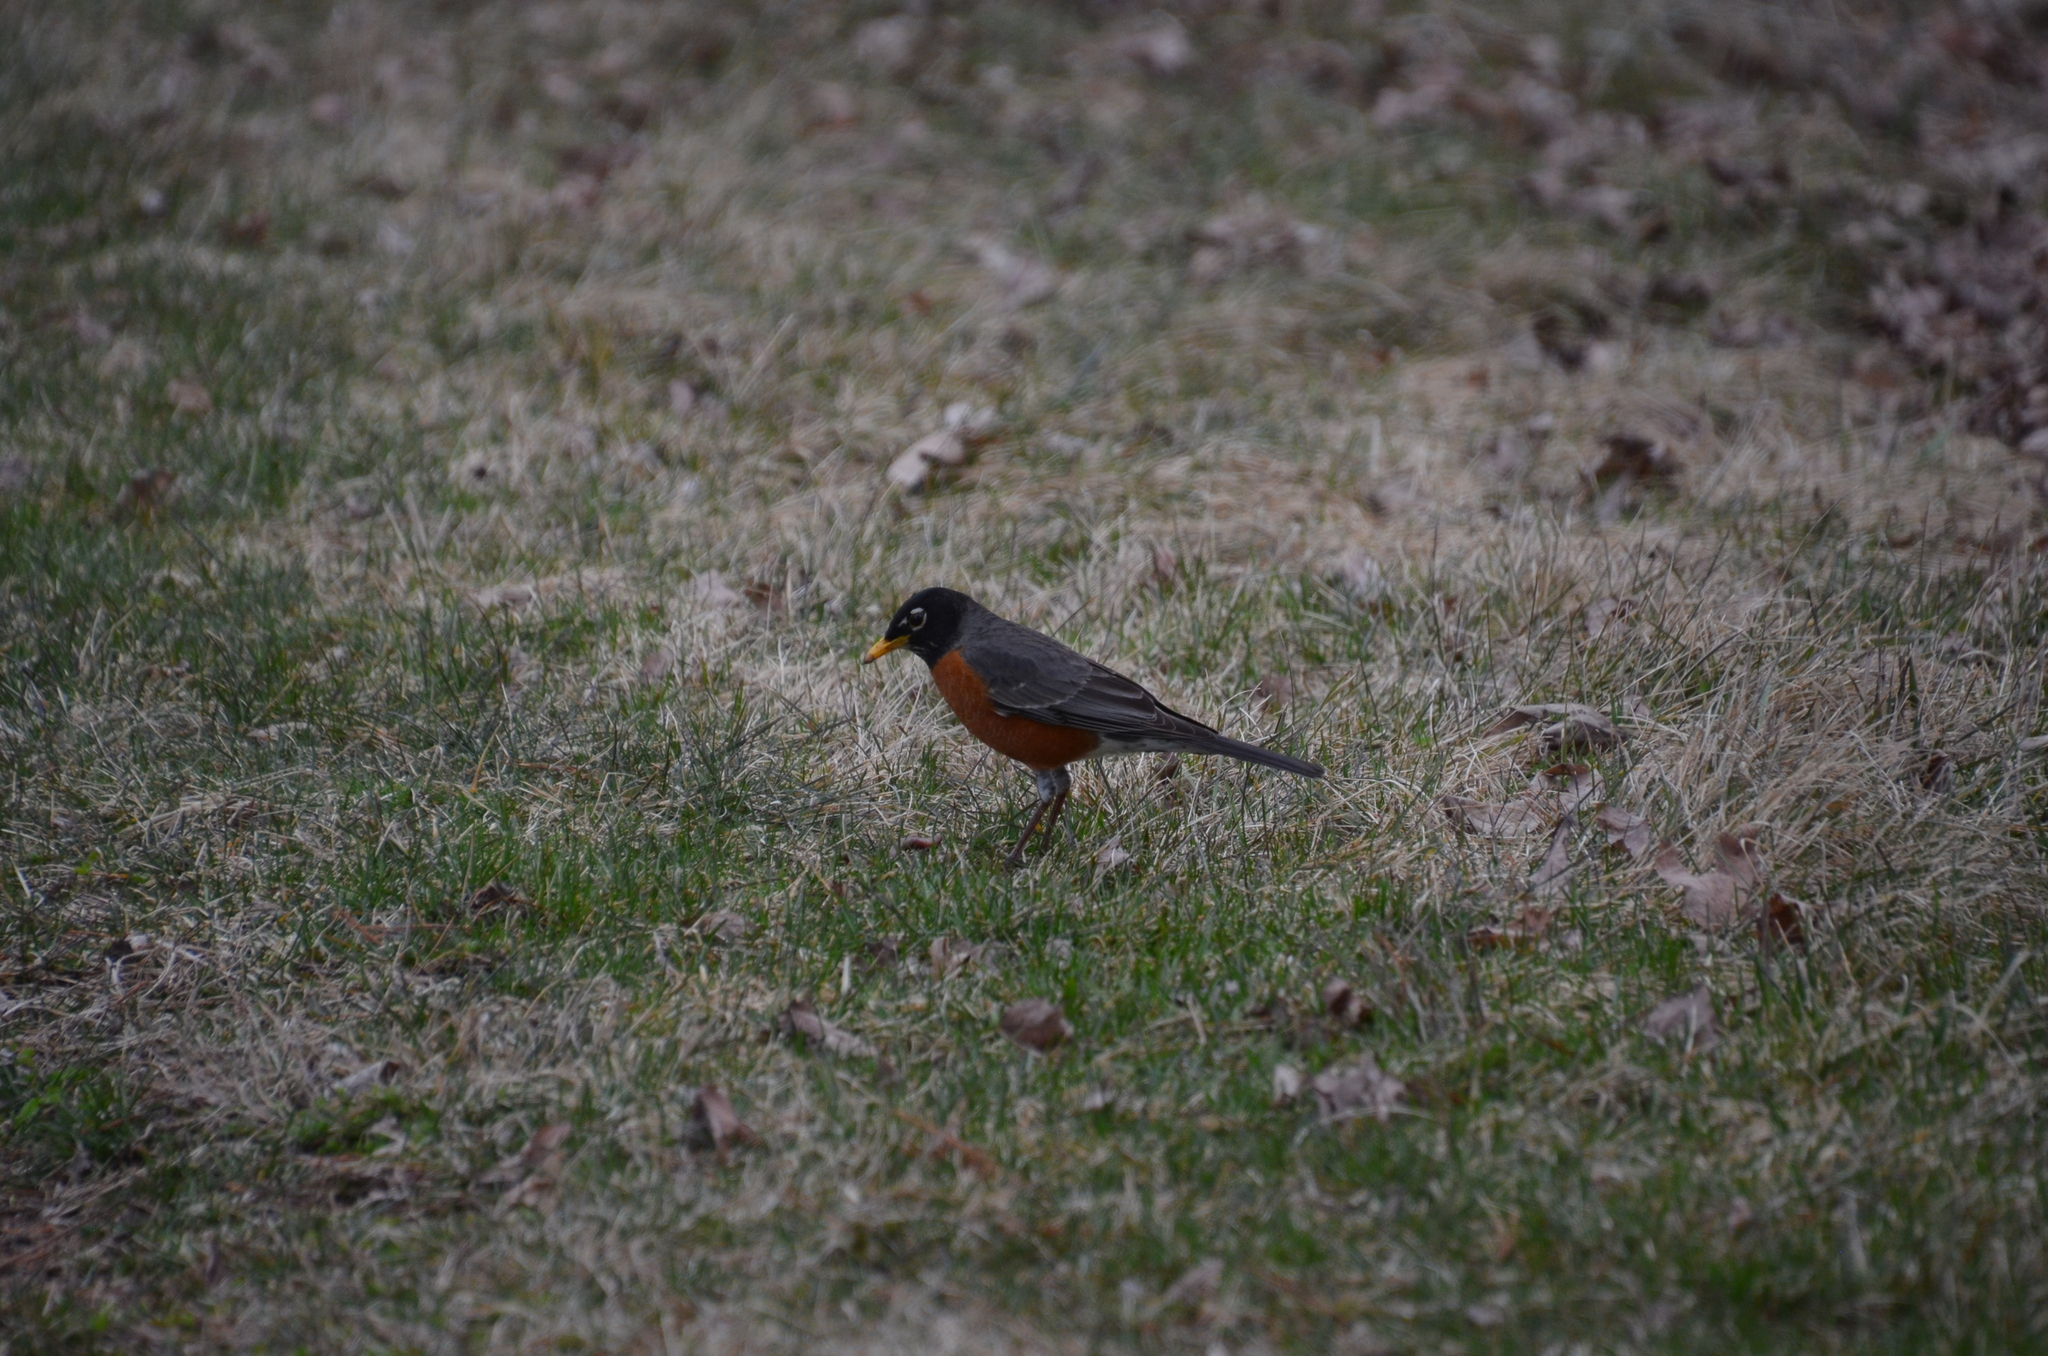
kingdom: Animalia
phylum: Chordata
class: Aves
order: Passeriformes
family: Turdidae
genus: Turdus
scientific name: Turdus migratorius
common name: American robin
